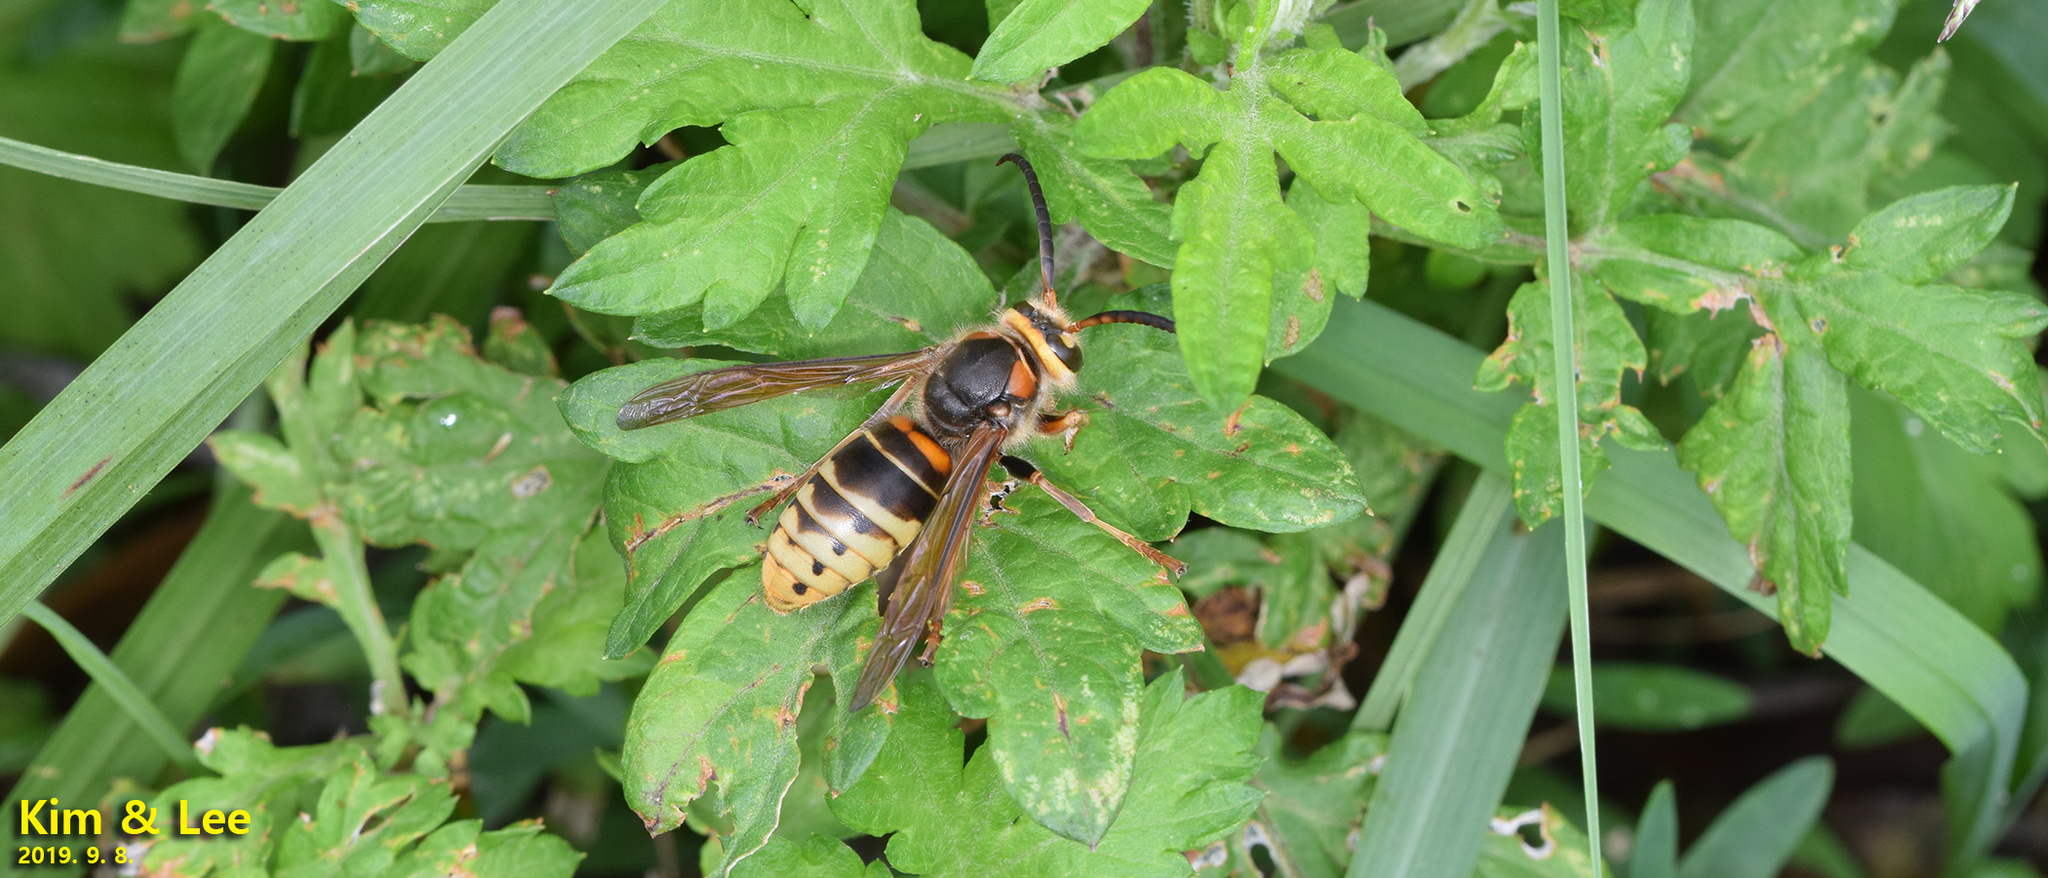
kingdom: Animalia
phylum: Arthropoda
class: Insecta
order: Hymenoptera
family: Vespidae
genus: Vespa
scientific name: Vespa crabro
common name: Hornet
